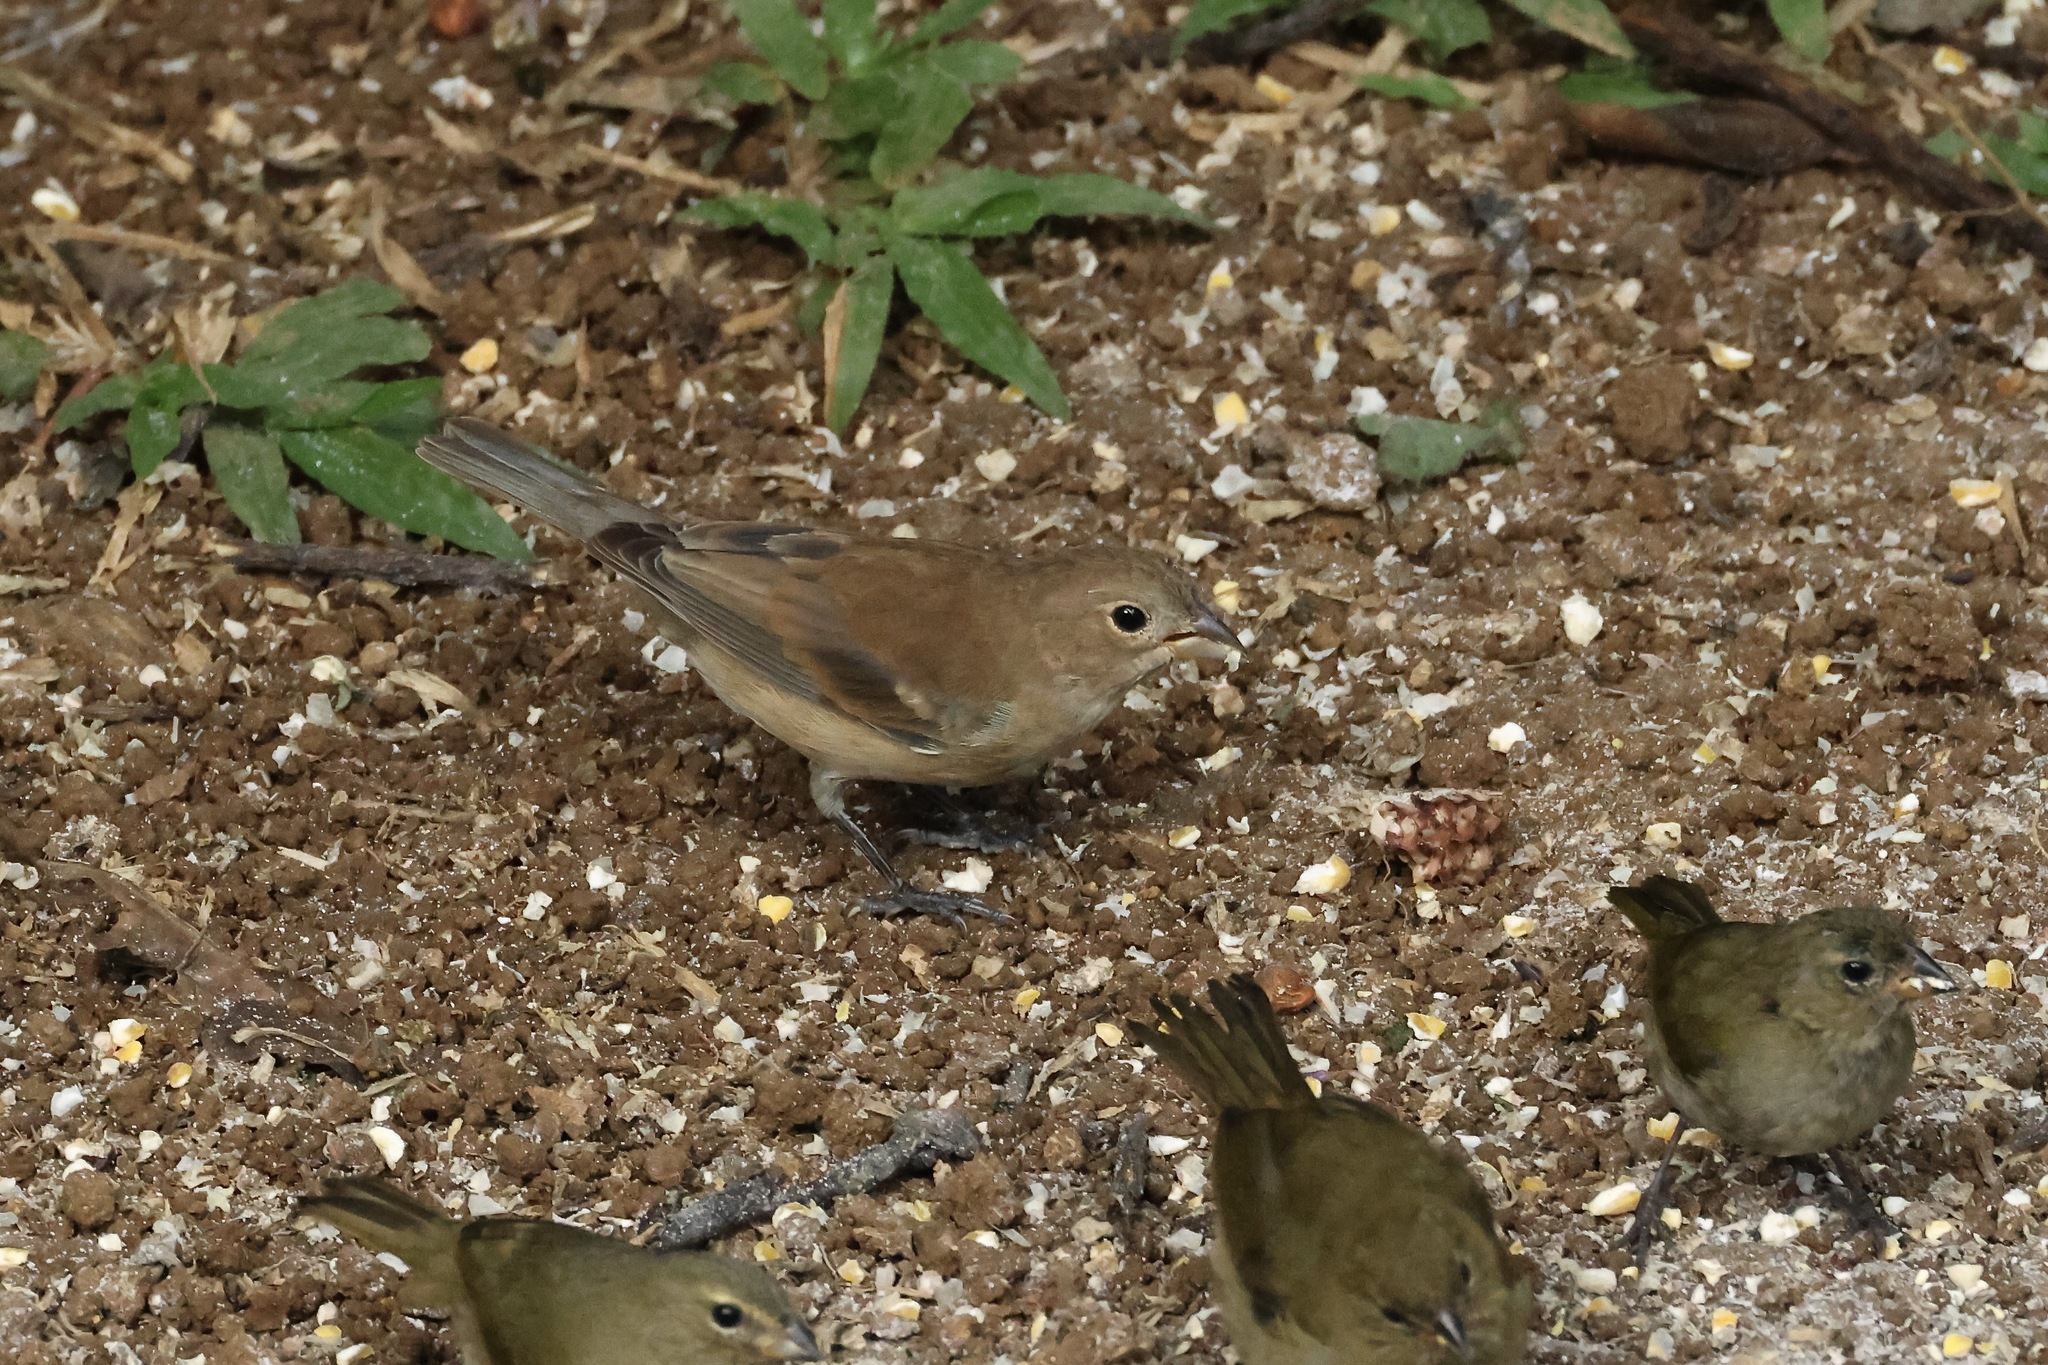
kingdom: Animalia
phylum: Chordata
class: Aves
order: Passeriformes
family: Cardinalidae
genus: Passerina
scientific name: Passerina cyanea
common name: Indigo bunting
